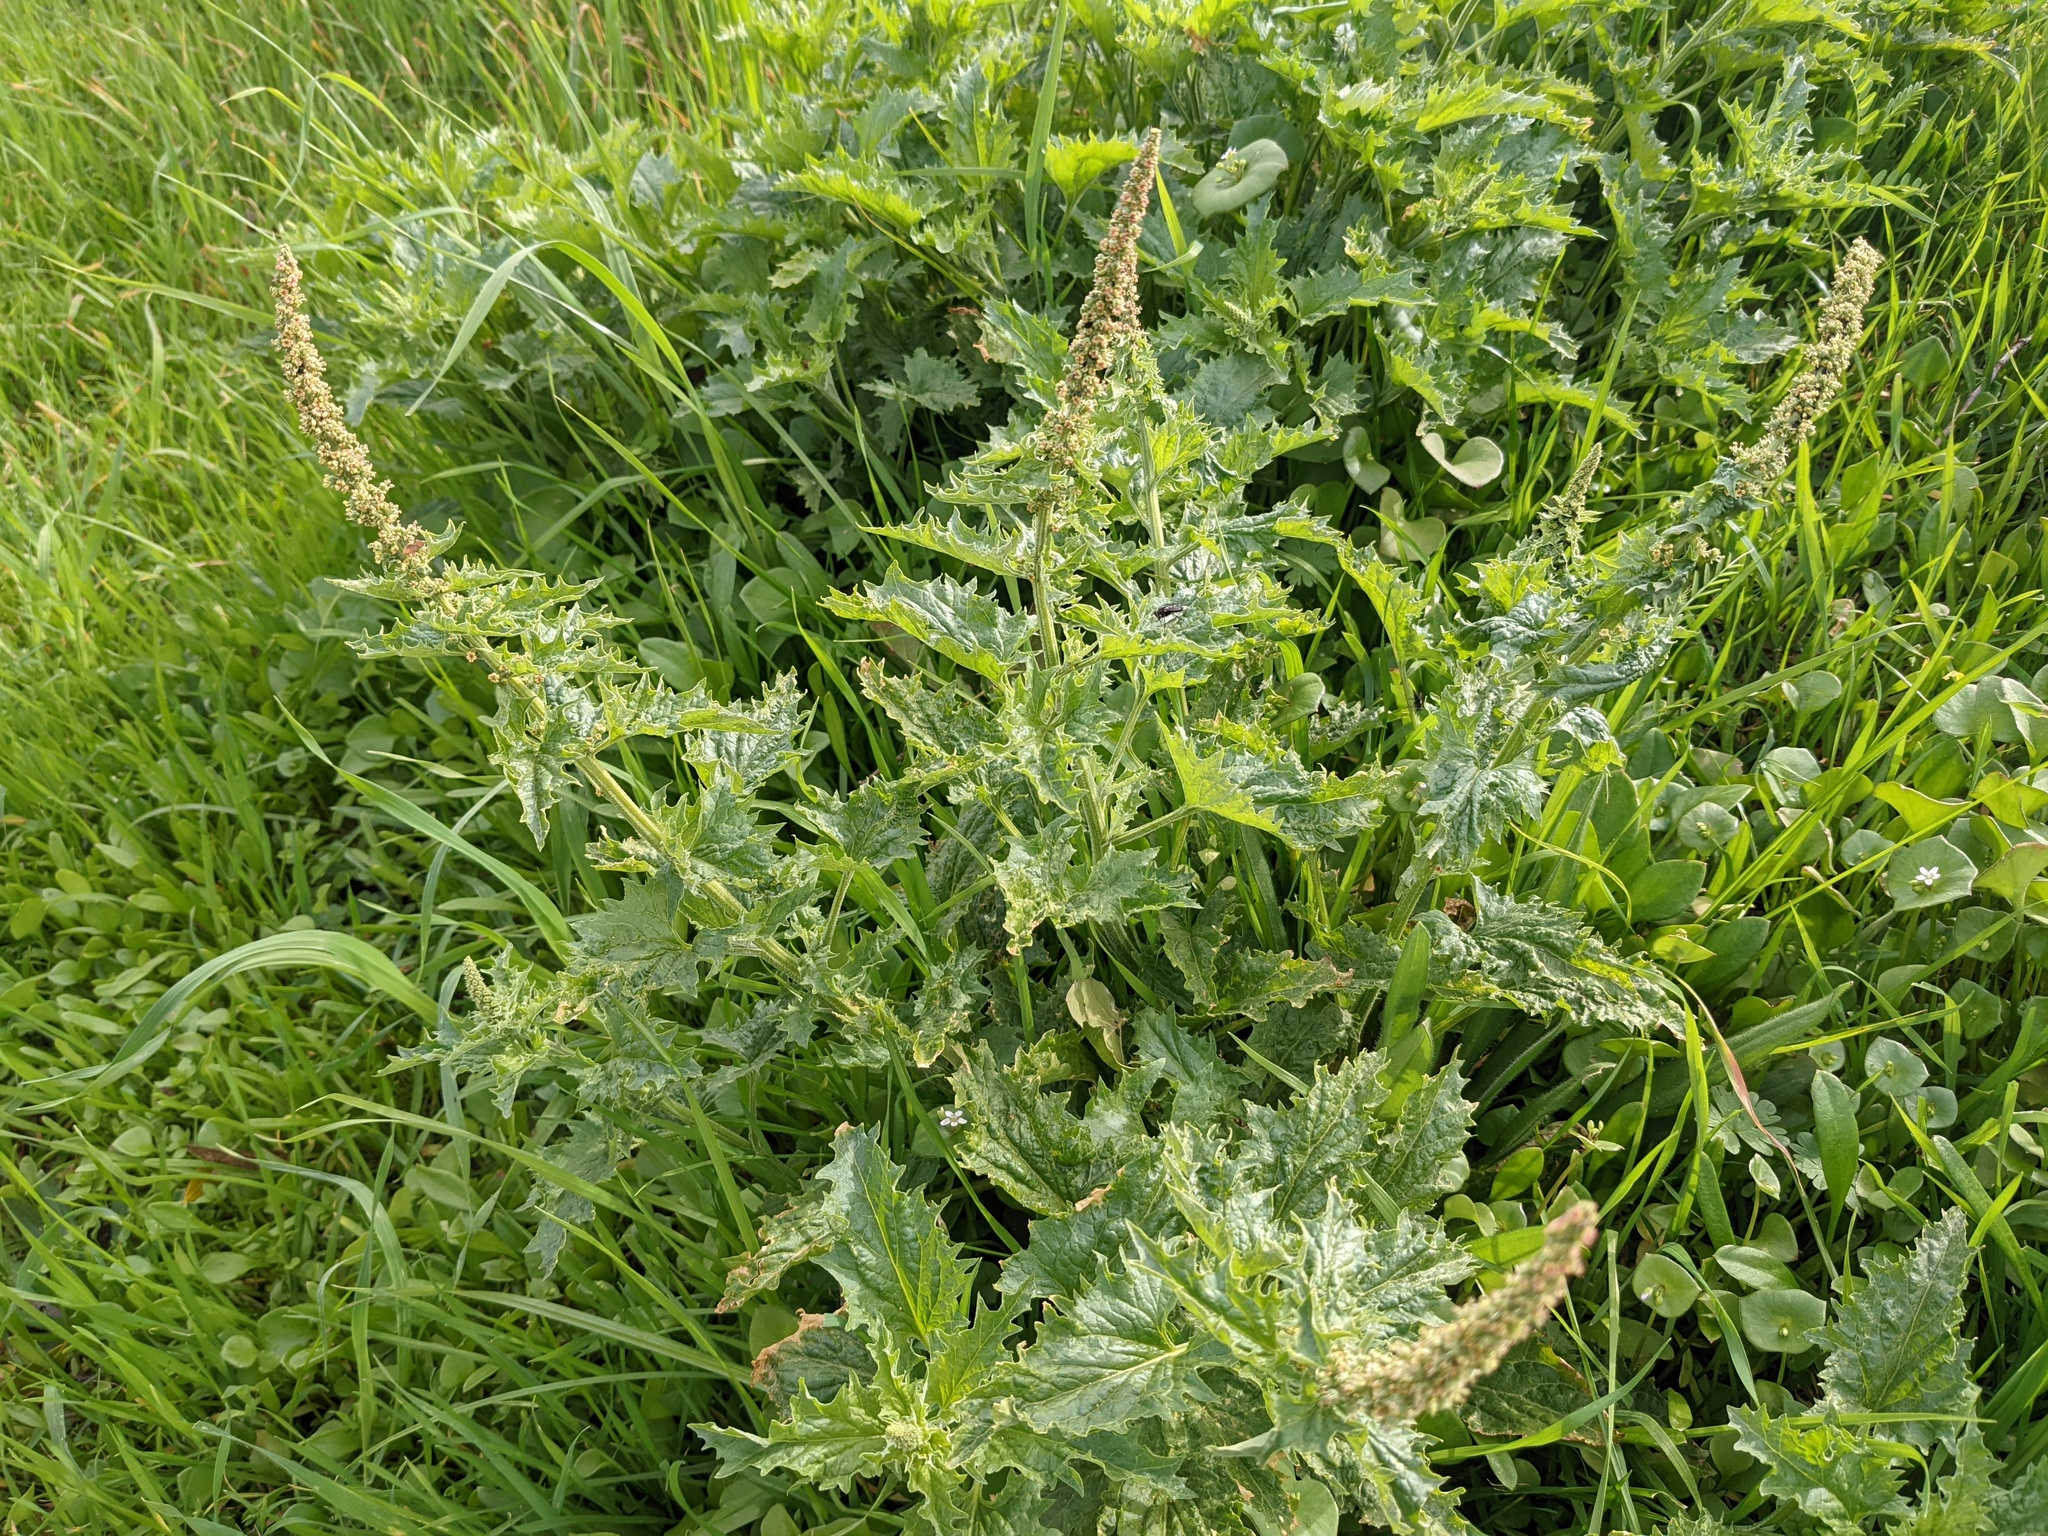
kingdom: Plantae
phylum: Tracheophyta
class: Magnoliopsida
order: Caryophyllales
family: Amaranthaceae
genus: Blitum
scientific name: Blitum californicum
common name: California goosefoot
